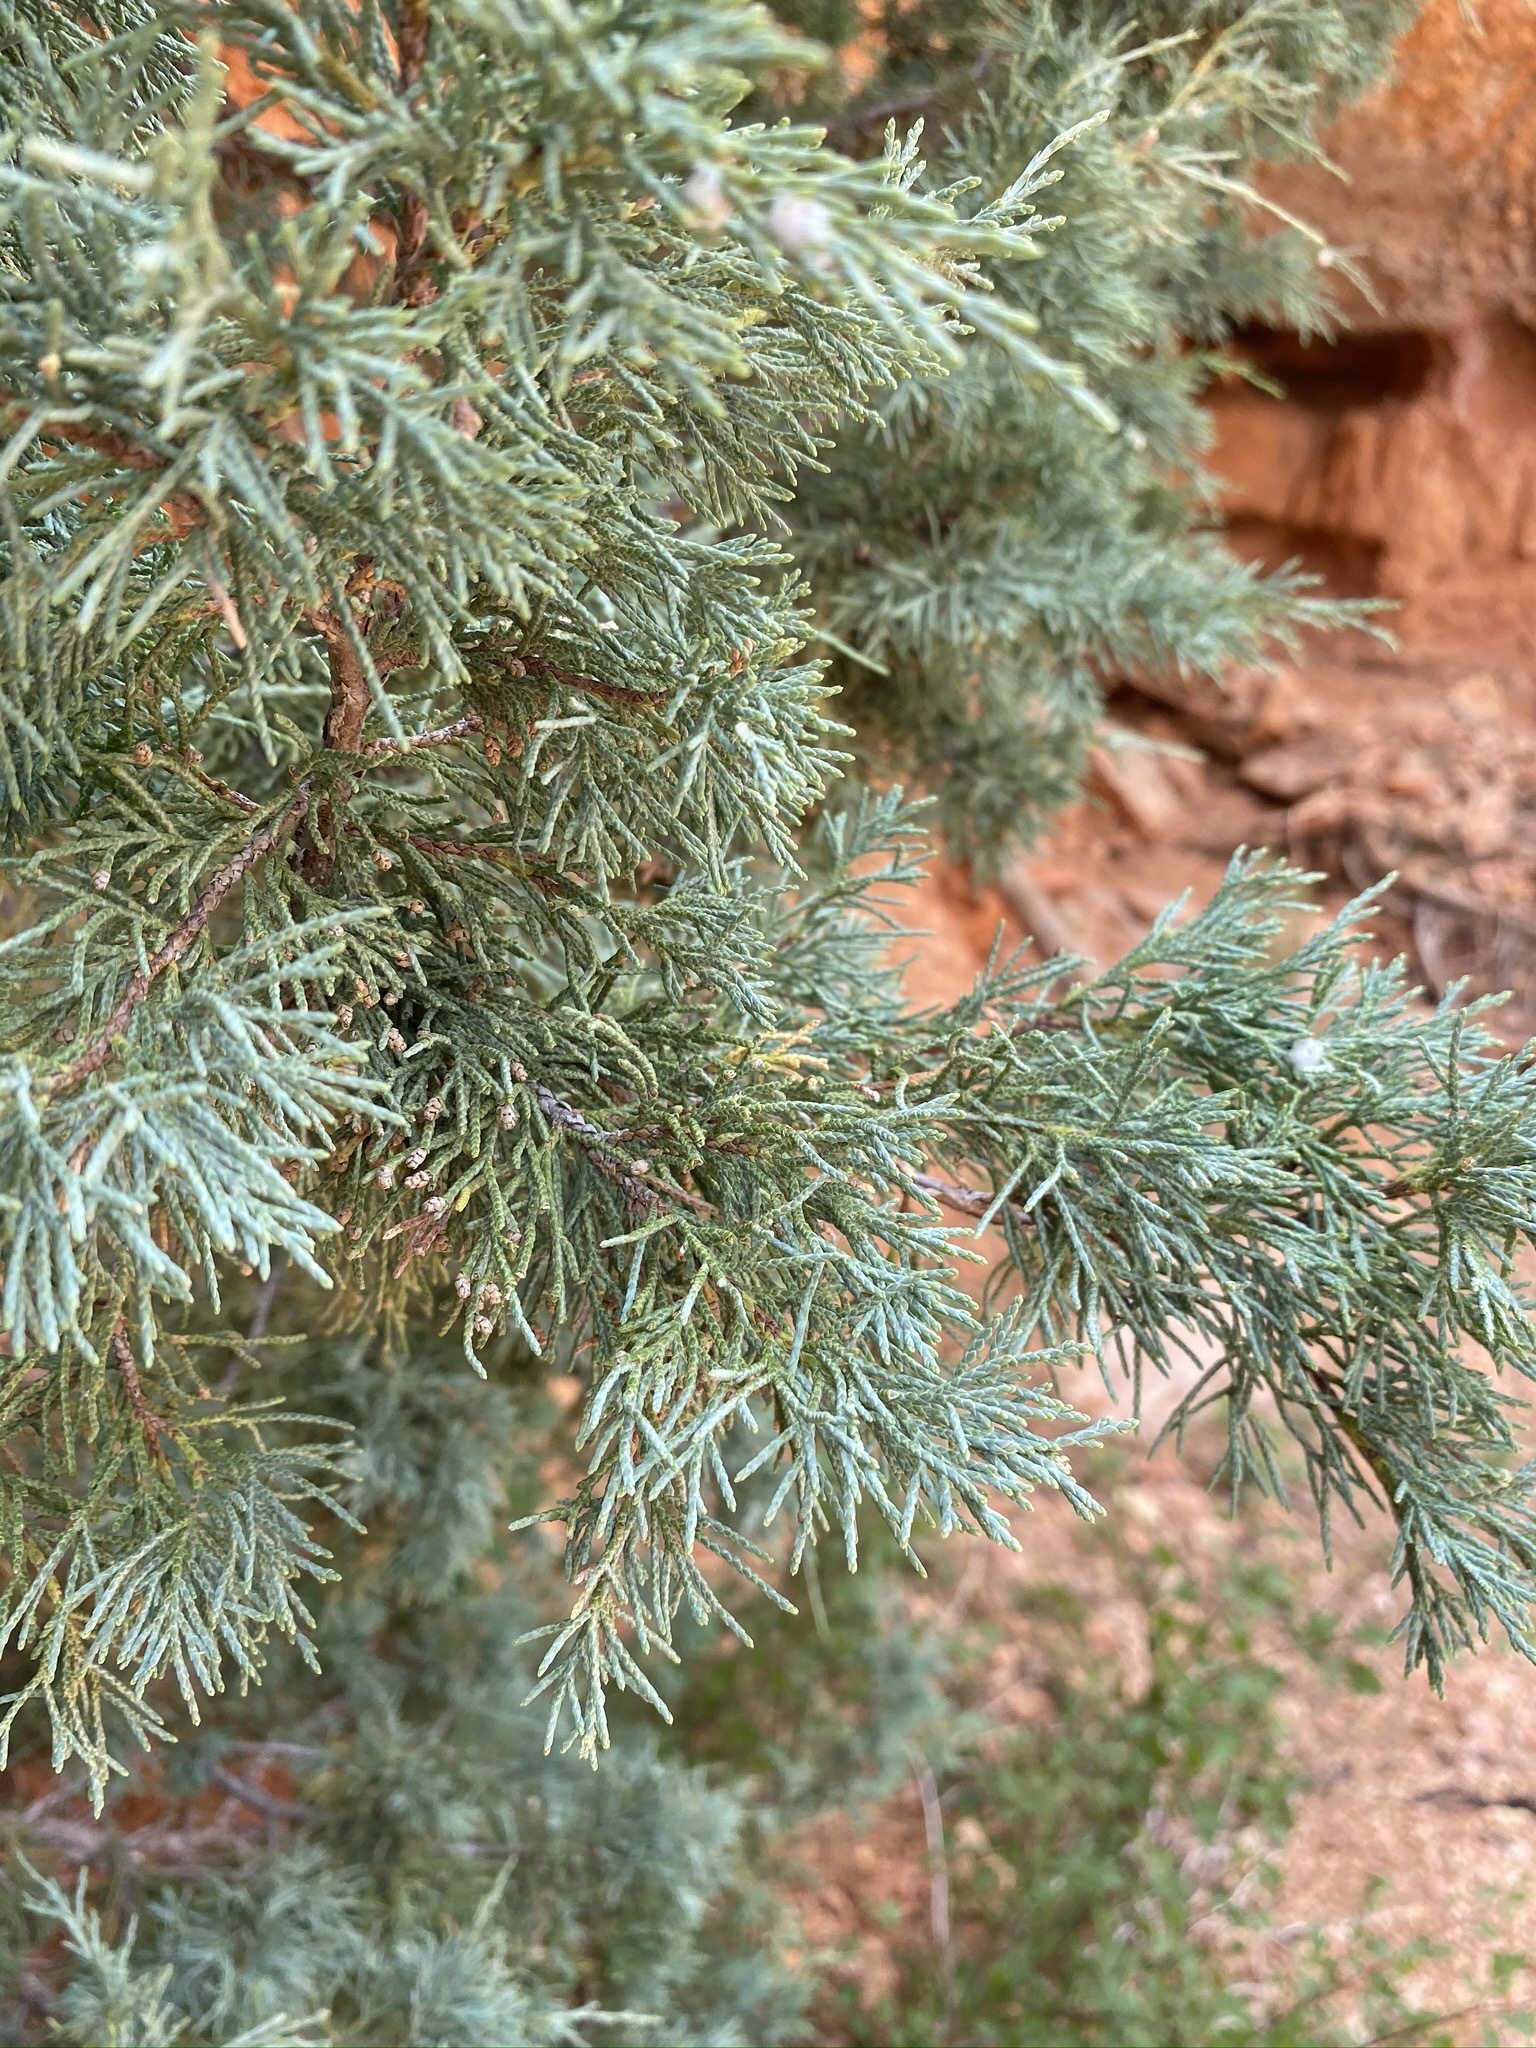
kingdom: Plantae
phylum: Tracheophyta
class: Pinopsida
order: Pinales
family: Cupressaceae
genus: Juniperus
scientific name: Juniperus scopulorum
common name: Rocky mountain juniper
